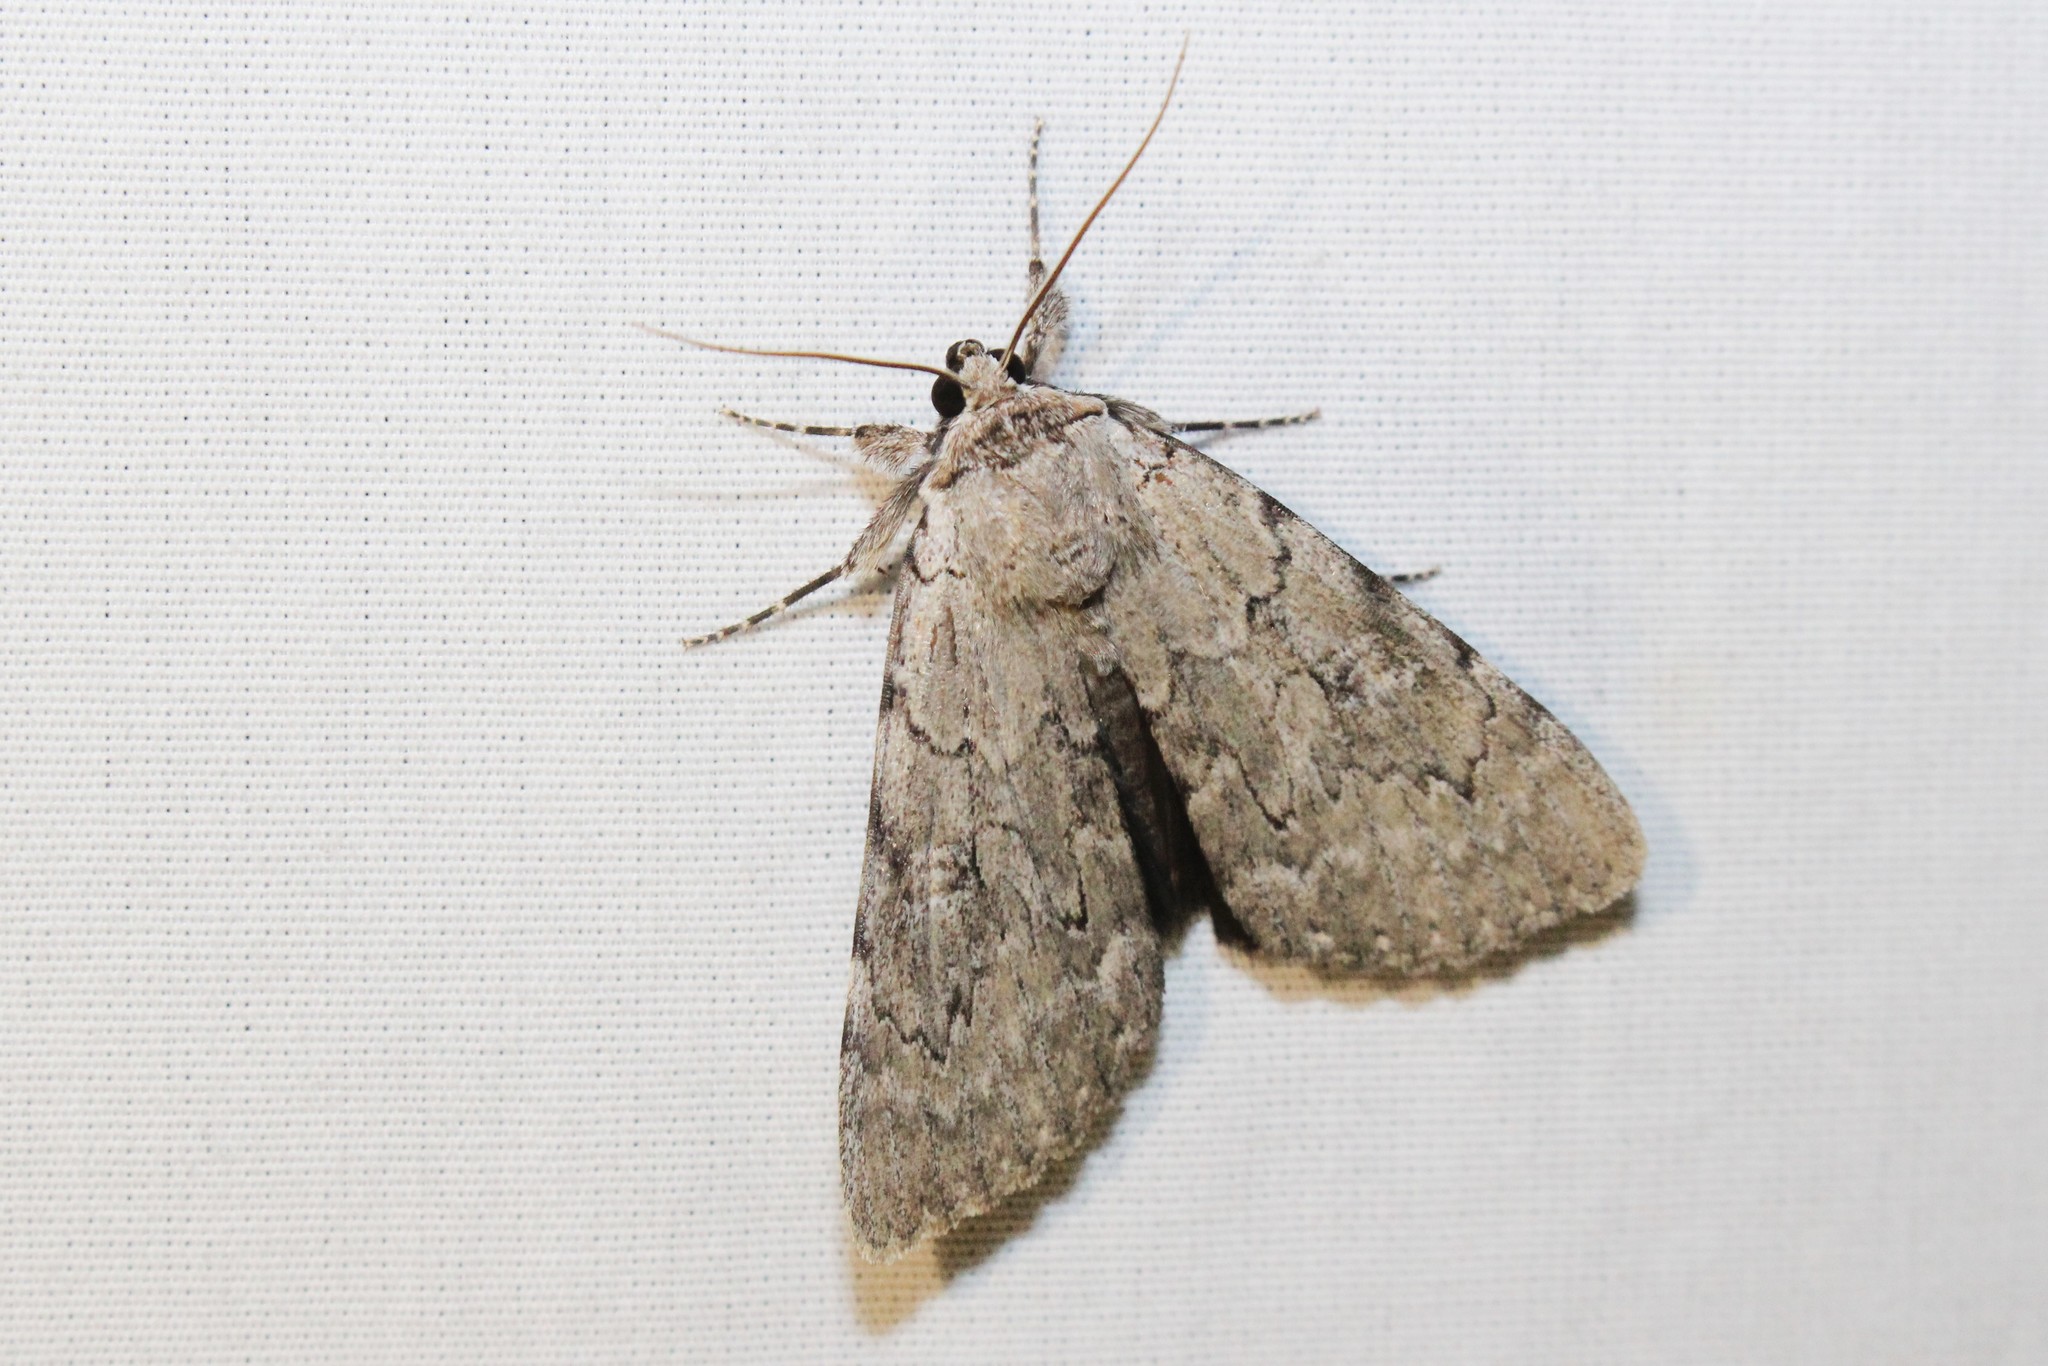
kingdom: Animalia
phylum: Arthropoda
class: Insecta
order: Lepidoptera
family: Erebidae
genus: Catocala
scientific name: Catocala judith
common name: Judith's underwing
